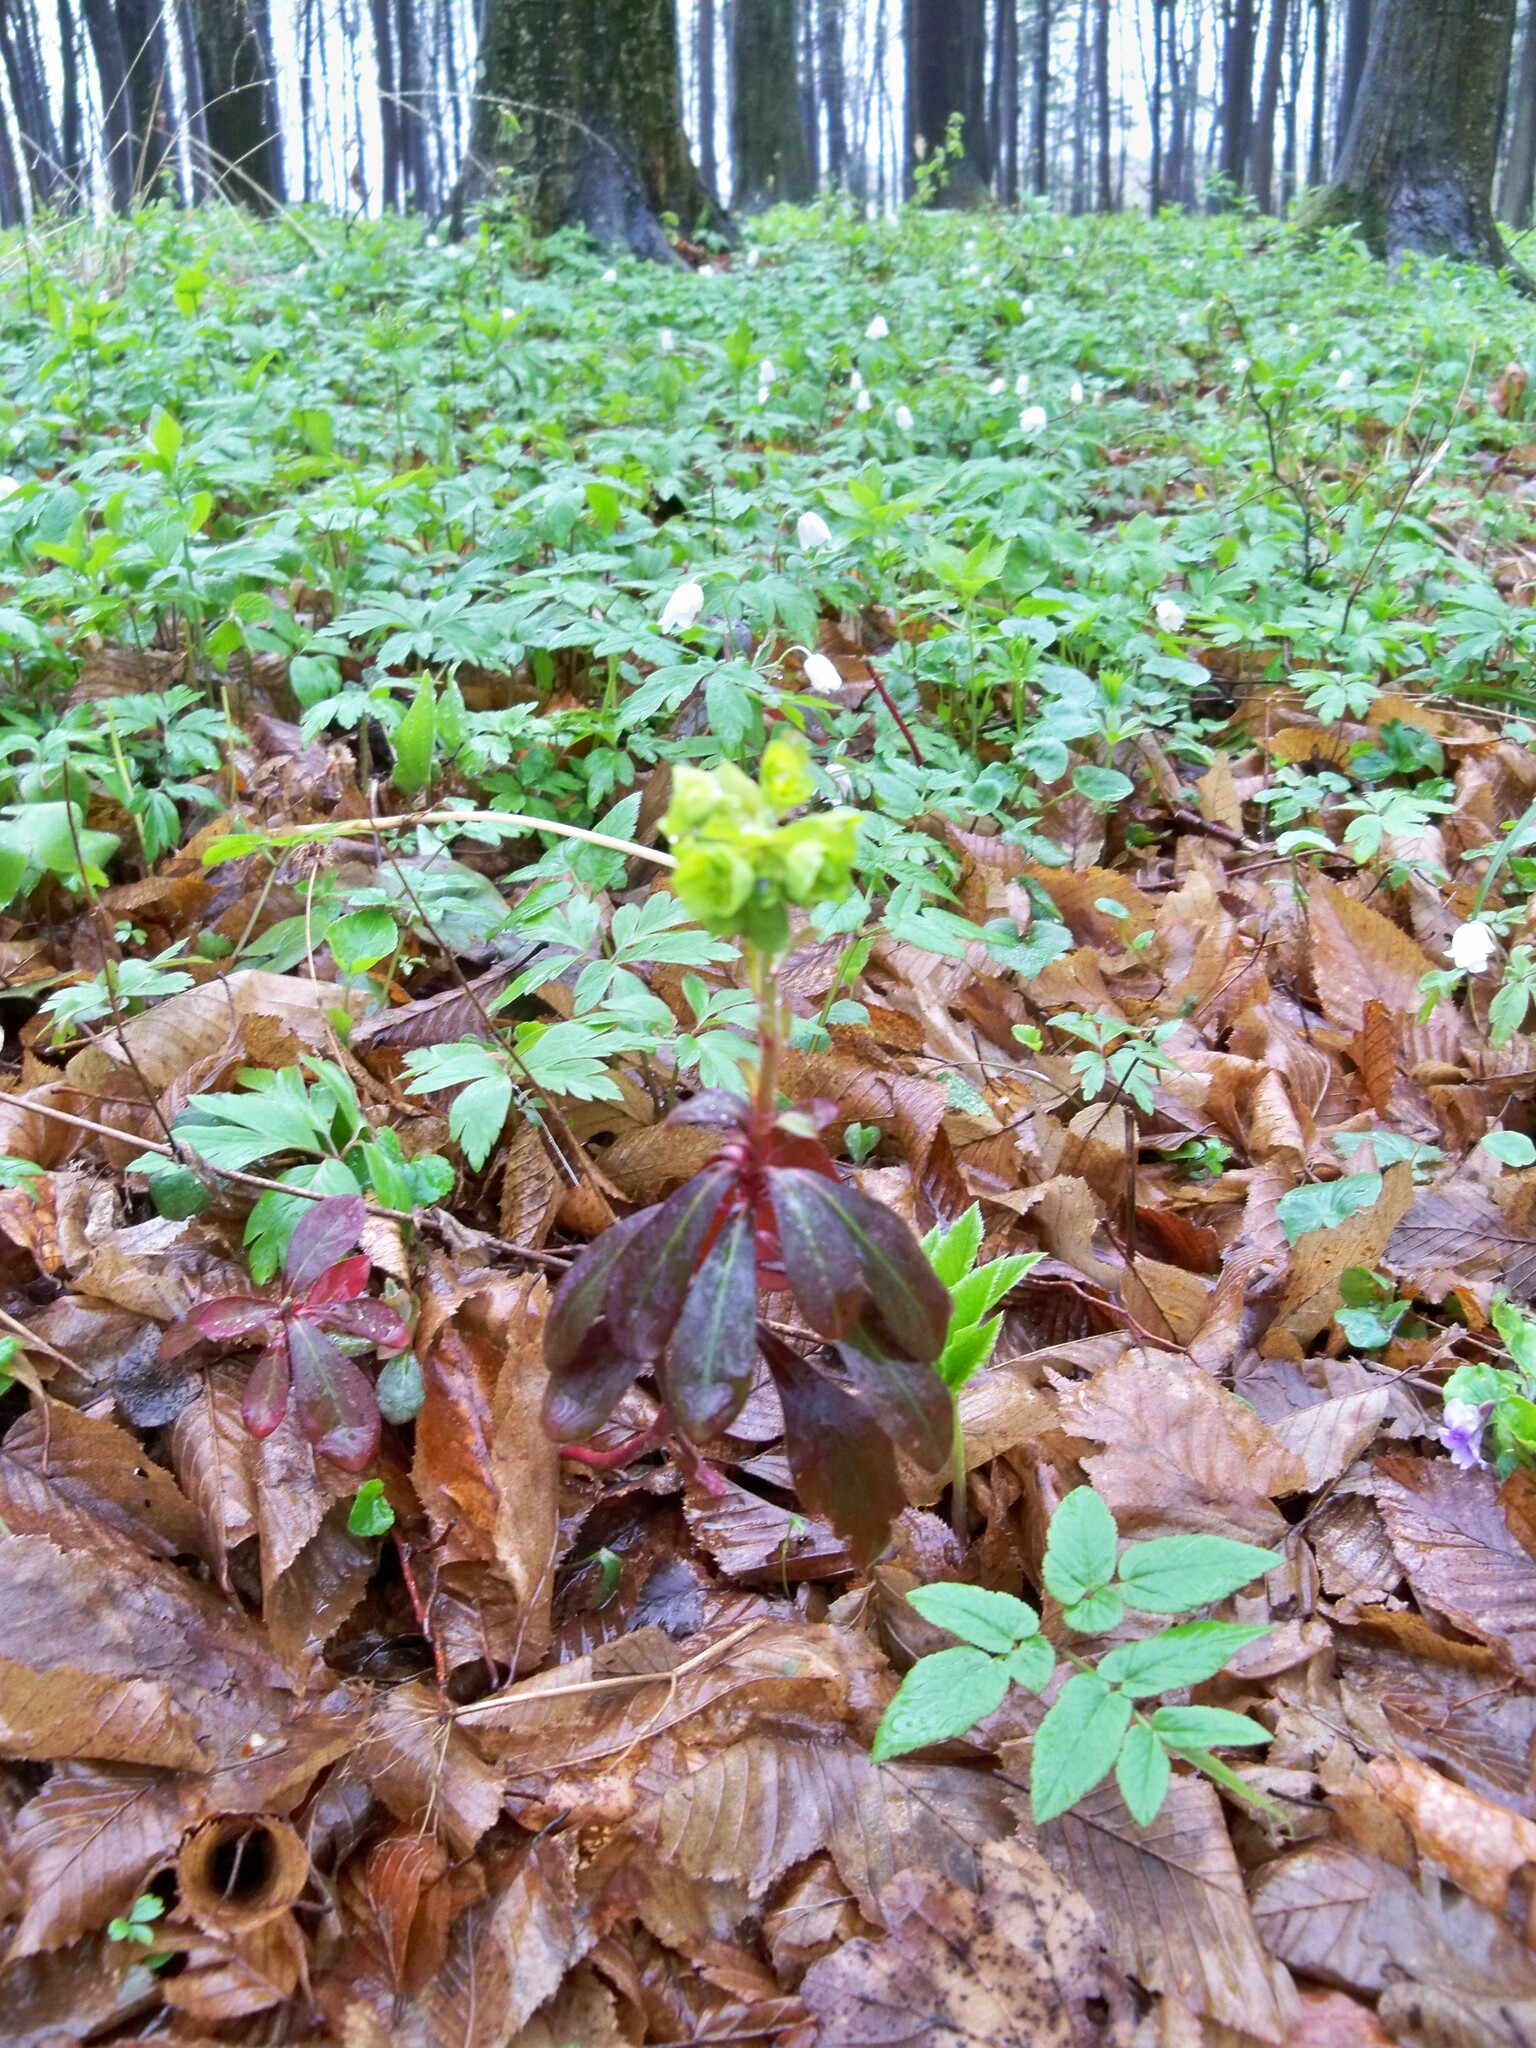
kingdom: Plantae
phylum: Tracheophyta
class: Magnoliopsida
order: Malpighiales
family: Euphorbiaceae
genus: Euphorbia
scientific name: Euphorbia amygdaloides
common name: Wood spurge
